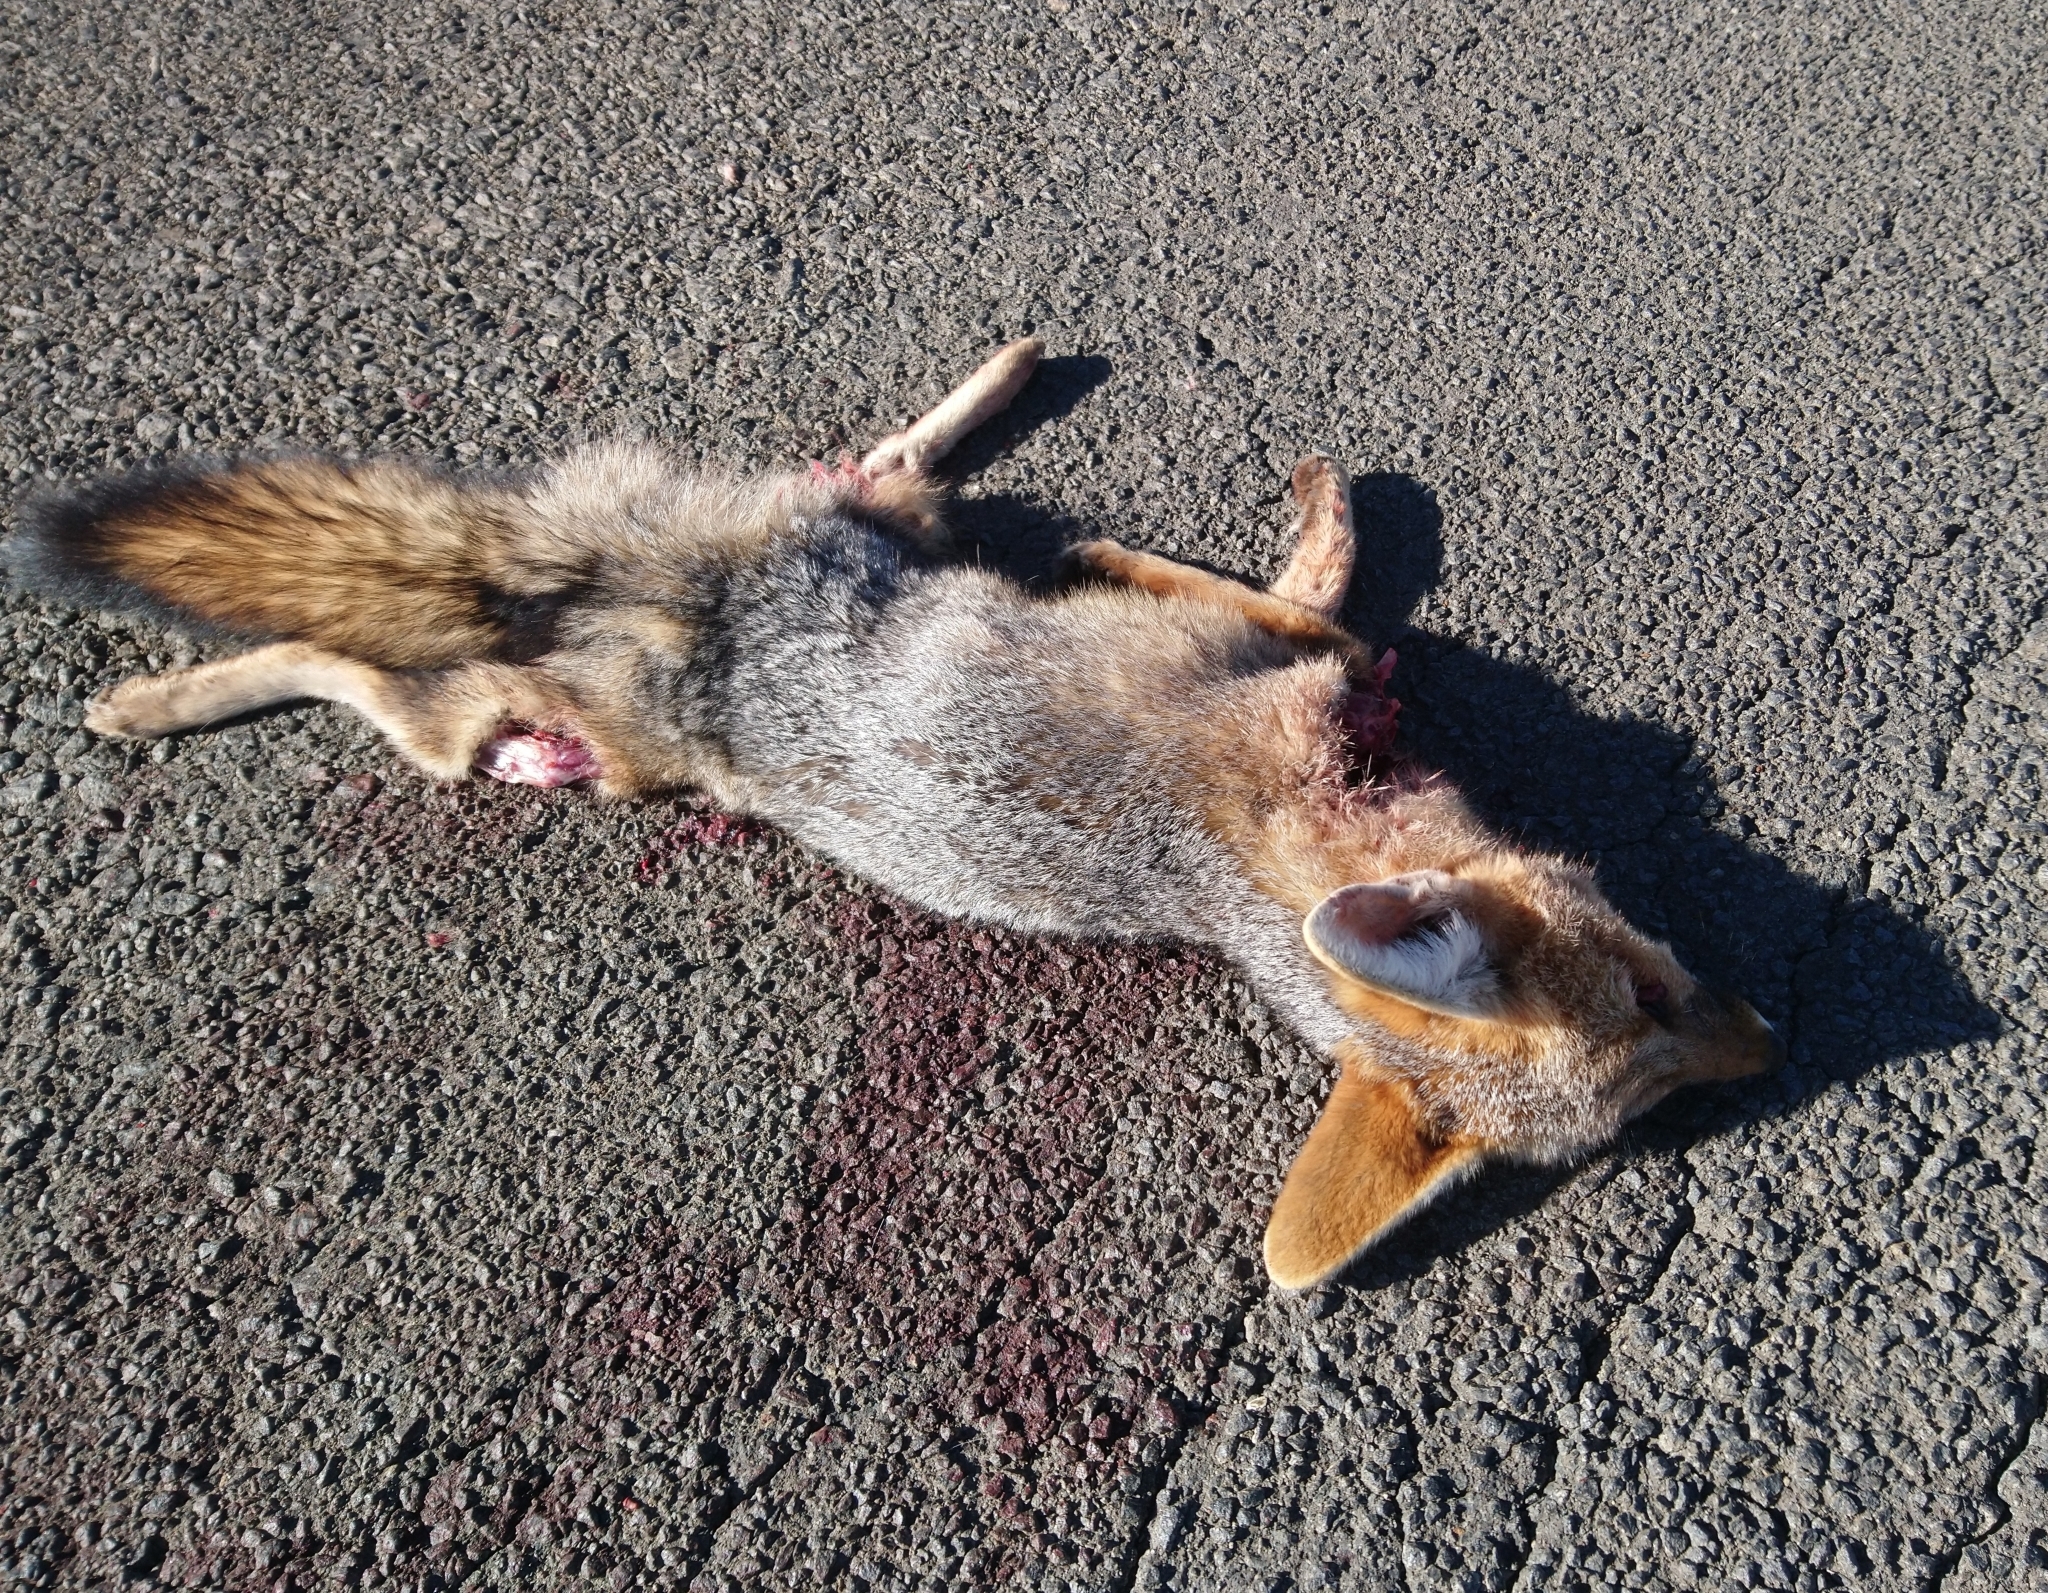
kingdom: Animalia
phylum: Chordata
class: Mammalia
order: Carnivora
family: Canidae
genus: Vulpes
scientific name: Vulpes chama
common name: Cape fox
